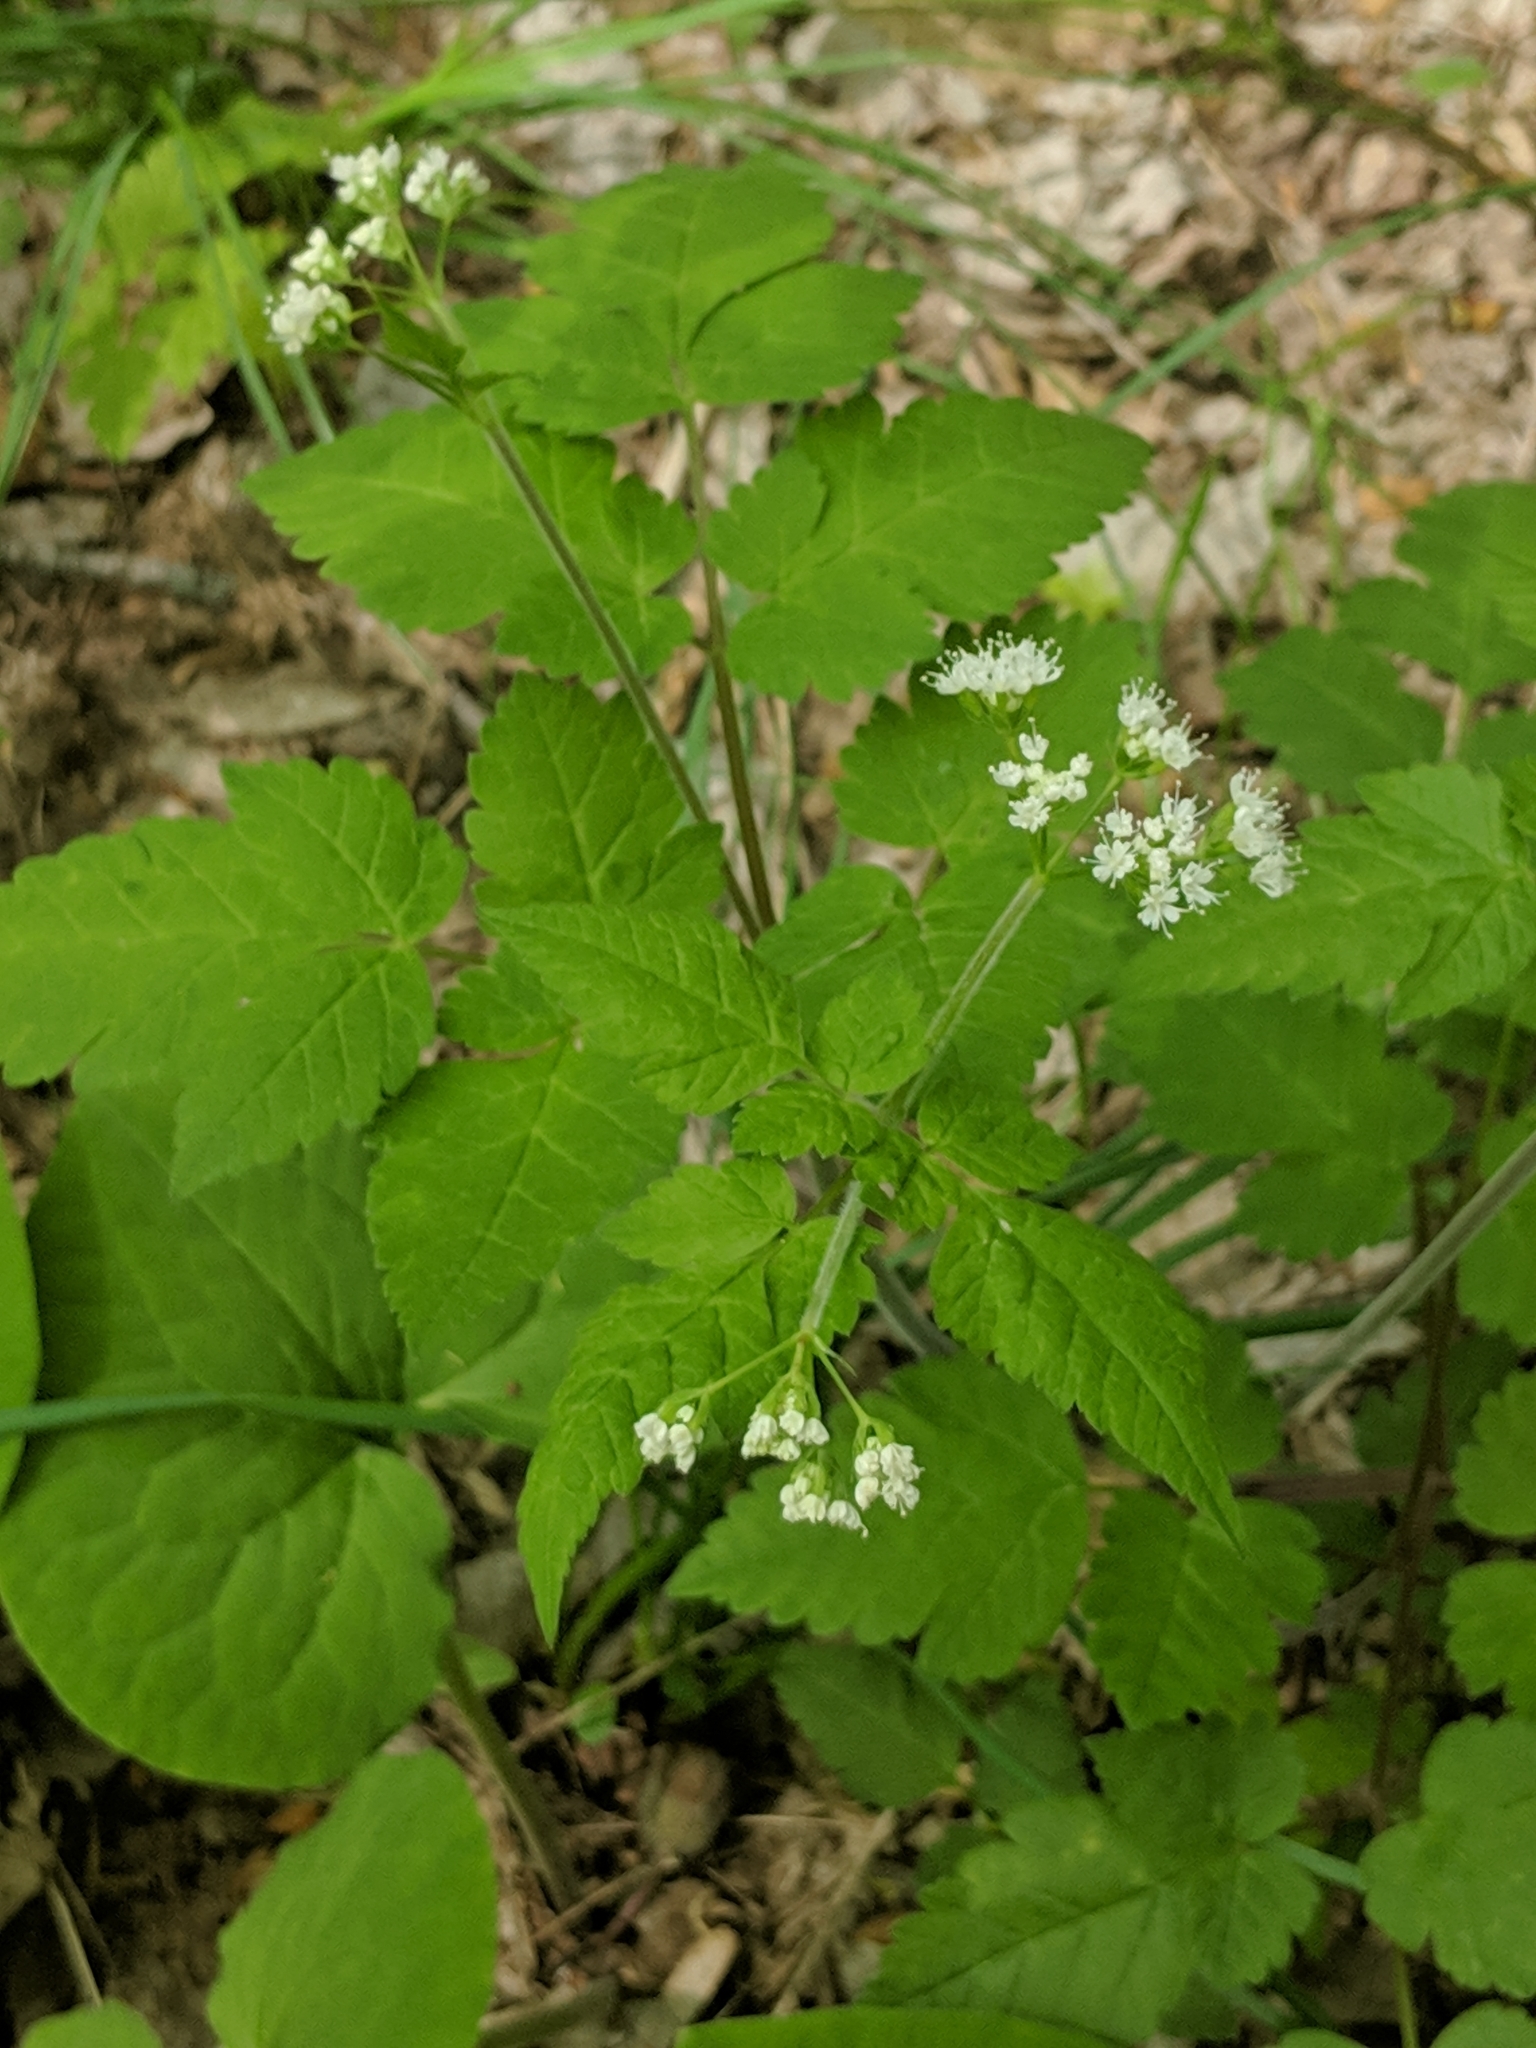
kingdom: Plantae
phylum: Tracheophyta
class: Magnoliopsida
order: Apiales
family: Apiaceae
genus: Osmorhiza
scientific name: Osmorhiza longistylis
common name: Smooth sweet cicely
